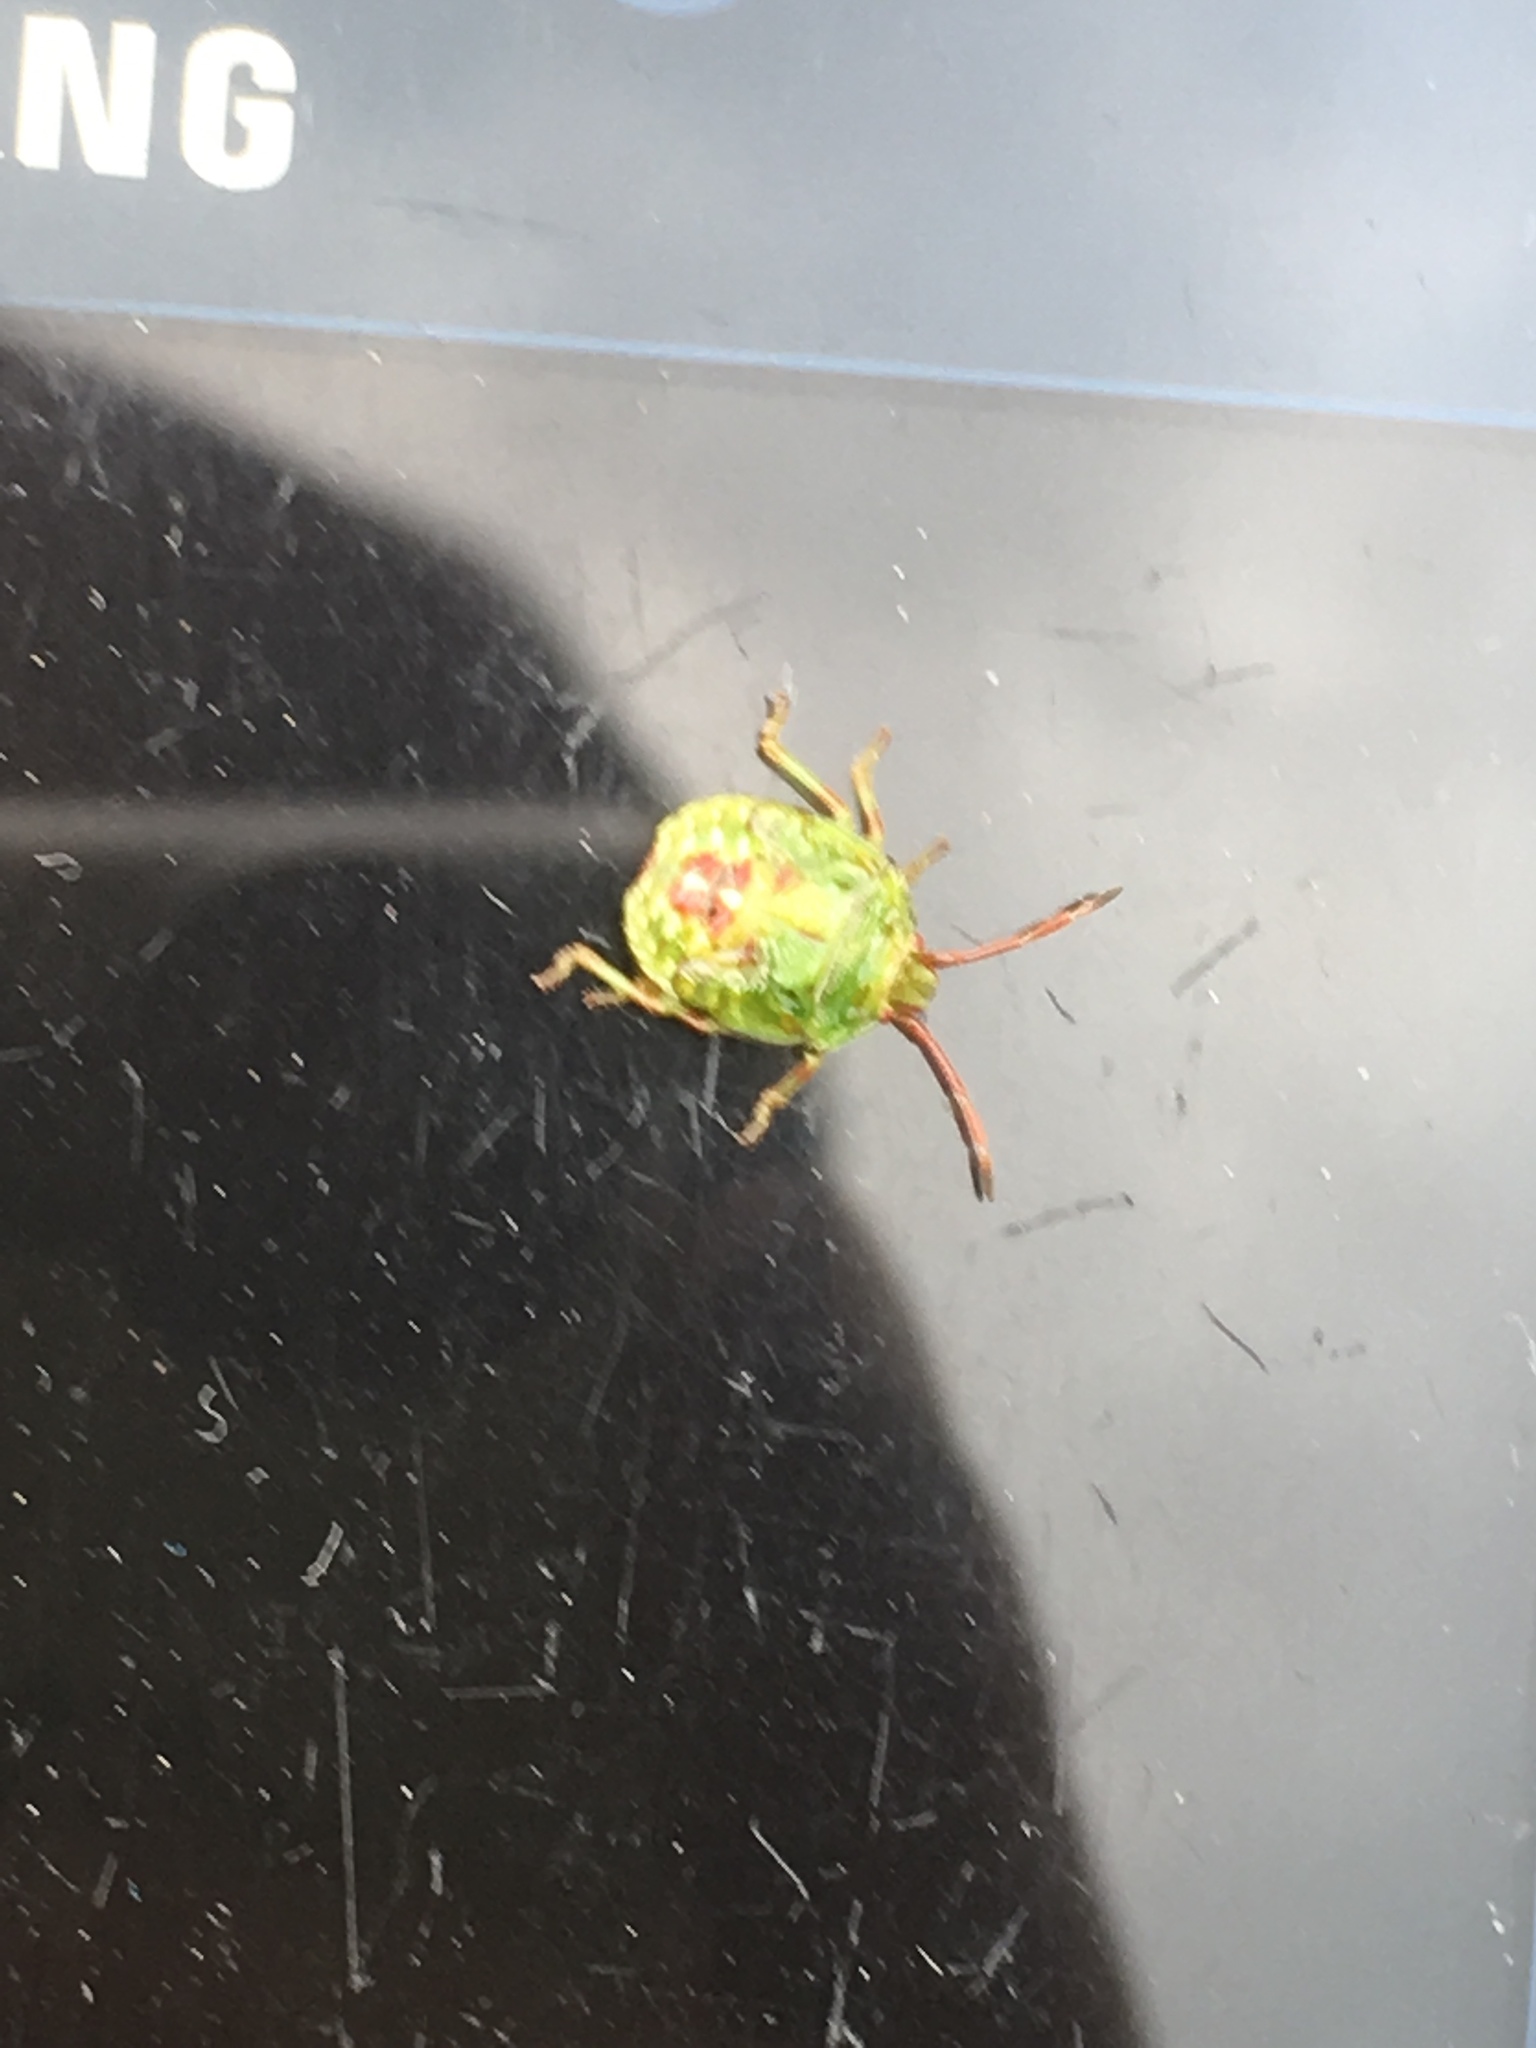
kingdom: Animalia
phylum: Arthropoda
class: Insecta
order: Hemiptera
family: Acanthosomatidae
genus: Elasmostethus
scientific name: Elasmostethus cruciatus
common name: Red-cross shield bug
